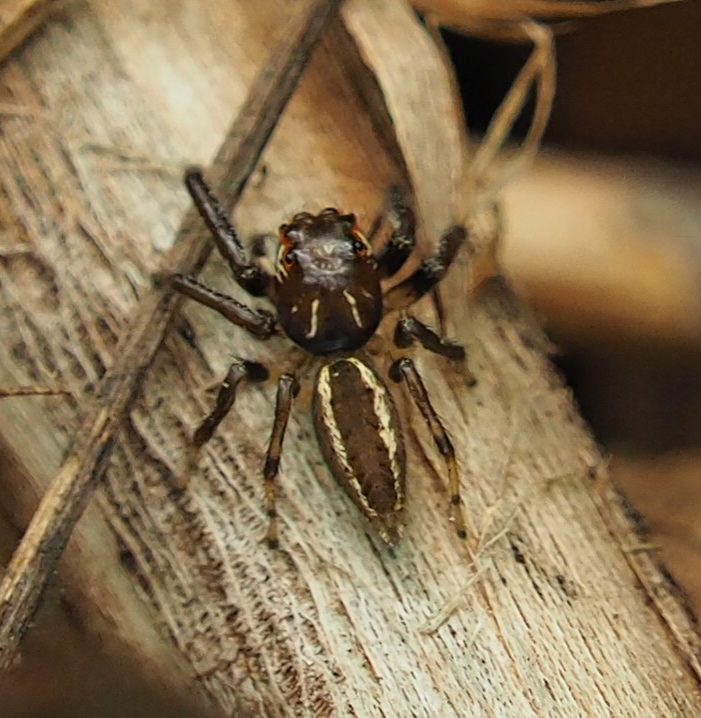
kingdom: Animalia
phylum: Arthropoda
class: Arachnida
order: Araneae
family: Salticidae
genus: Colonus
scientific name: Colonus sylvanus
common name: Jumping spiders
